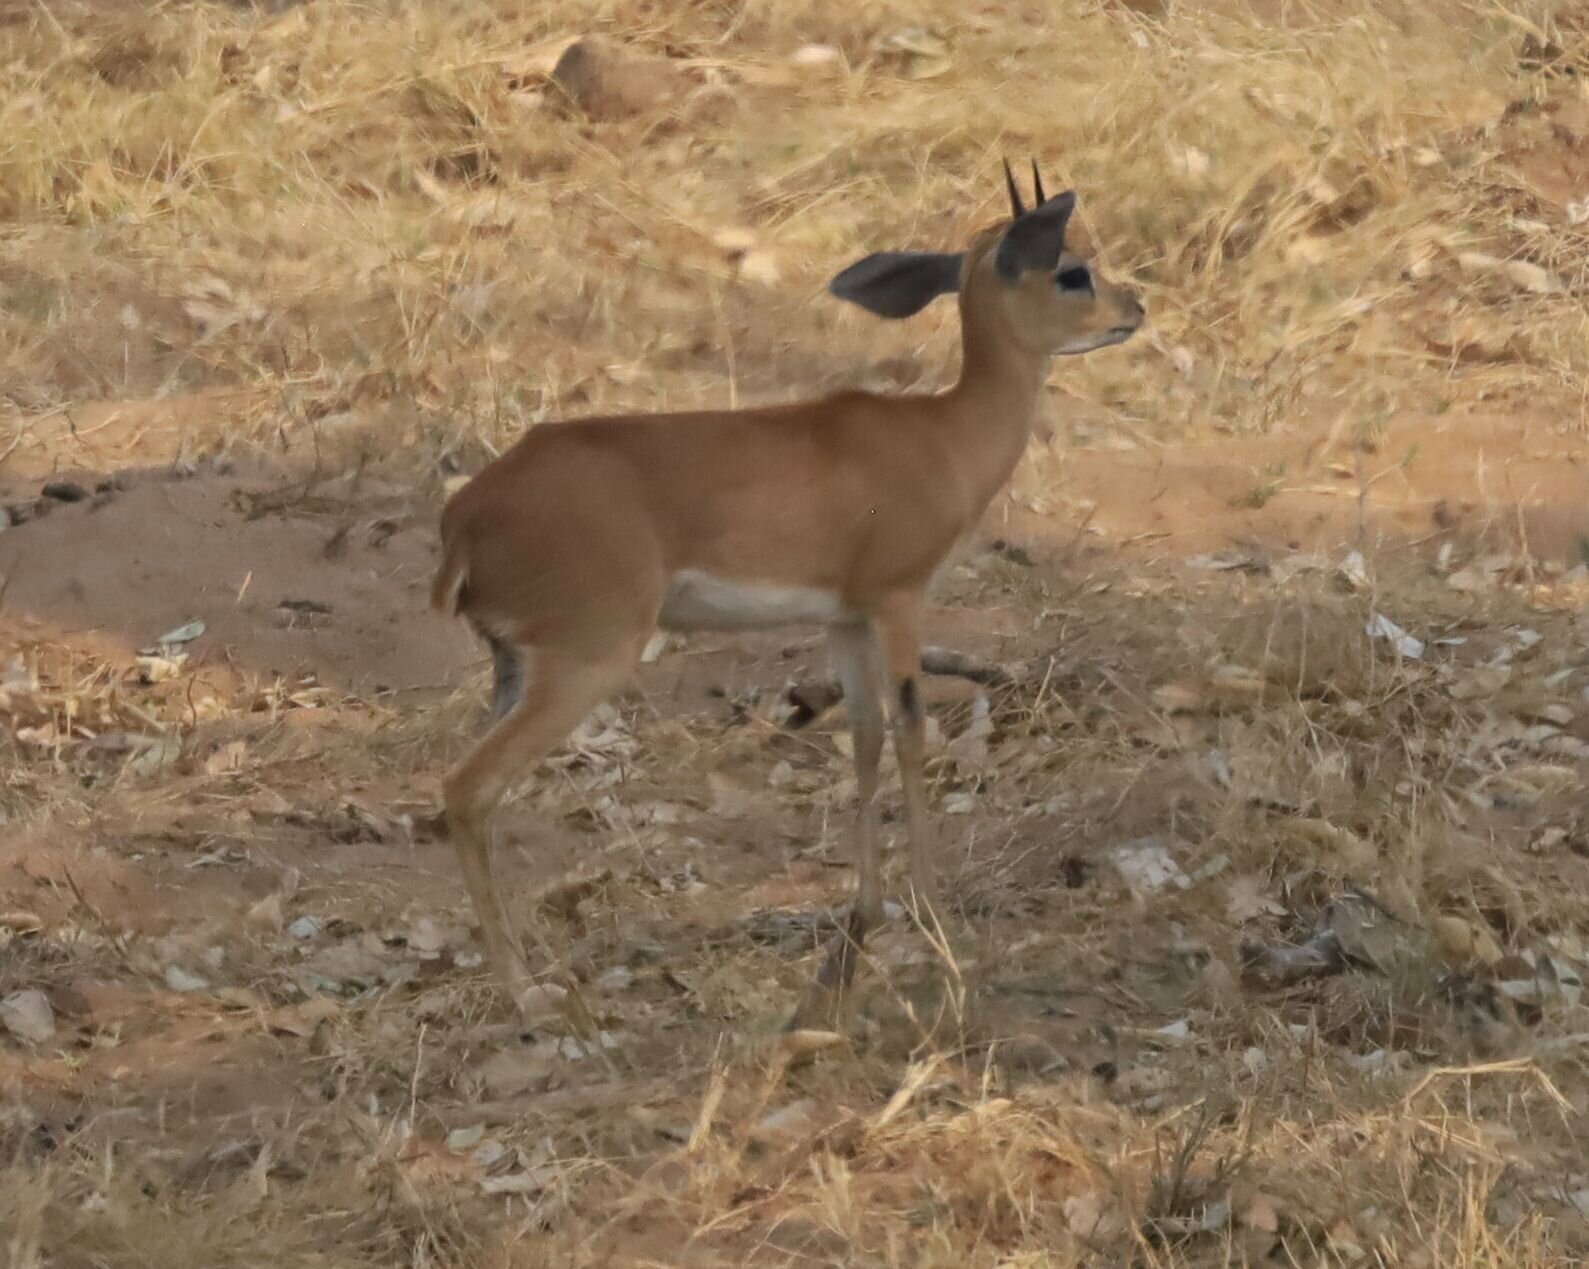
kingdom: Animalia
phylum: Chordata
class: Mammalia
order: Artiodactyla
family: Bovidae
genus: Raphicerus
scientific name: Raphicerus campestris
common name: Steenbok
